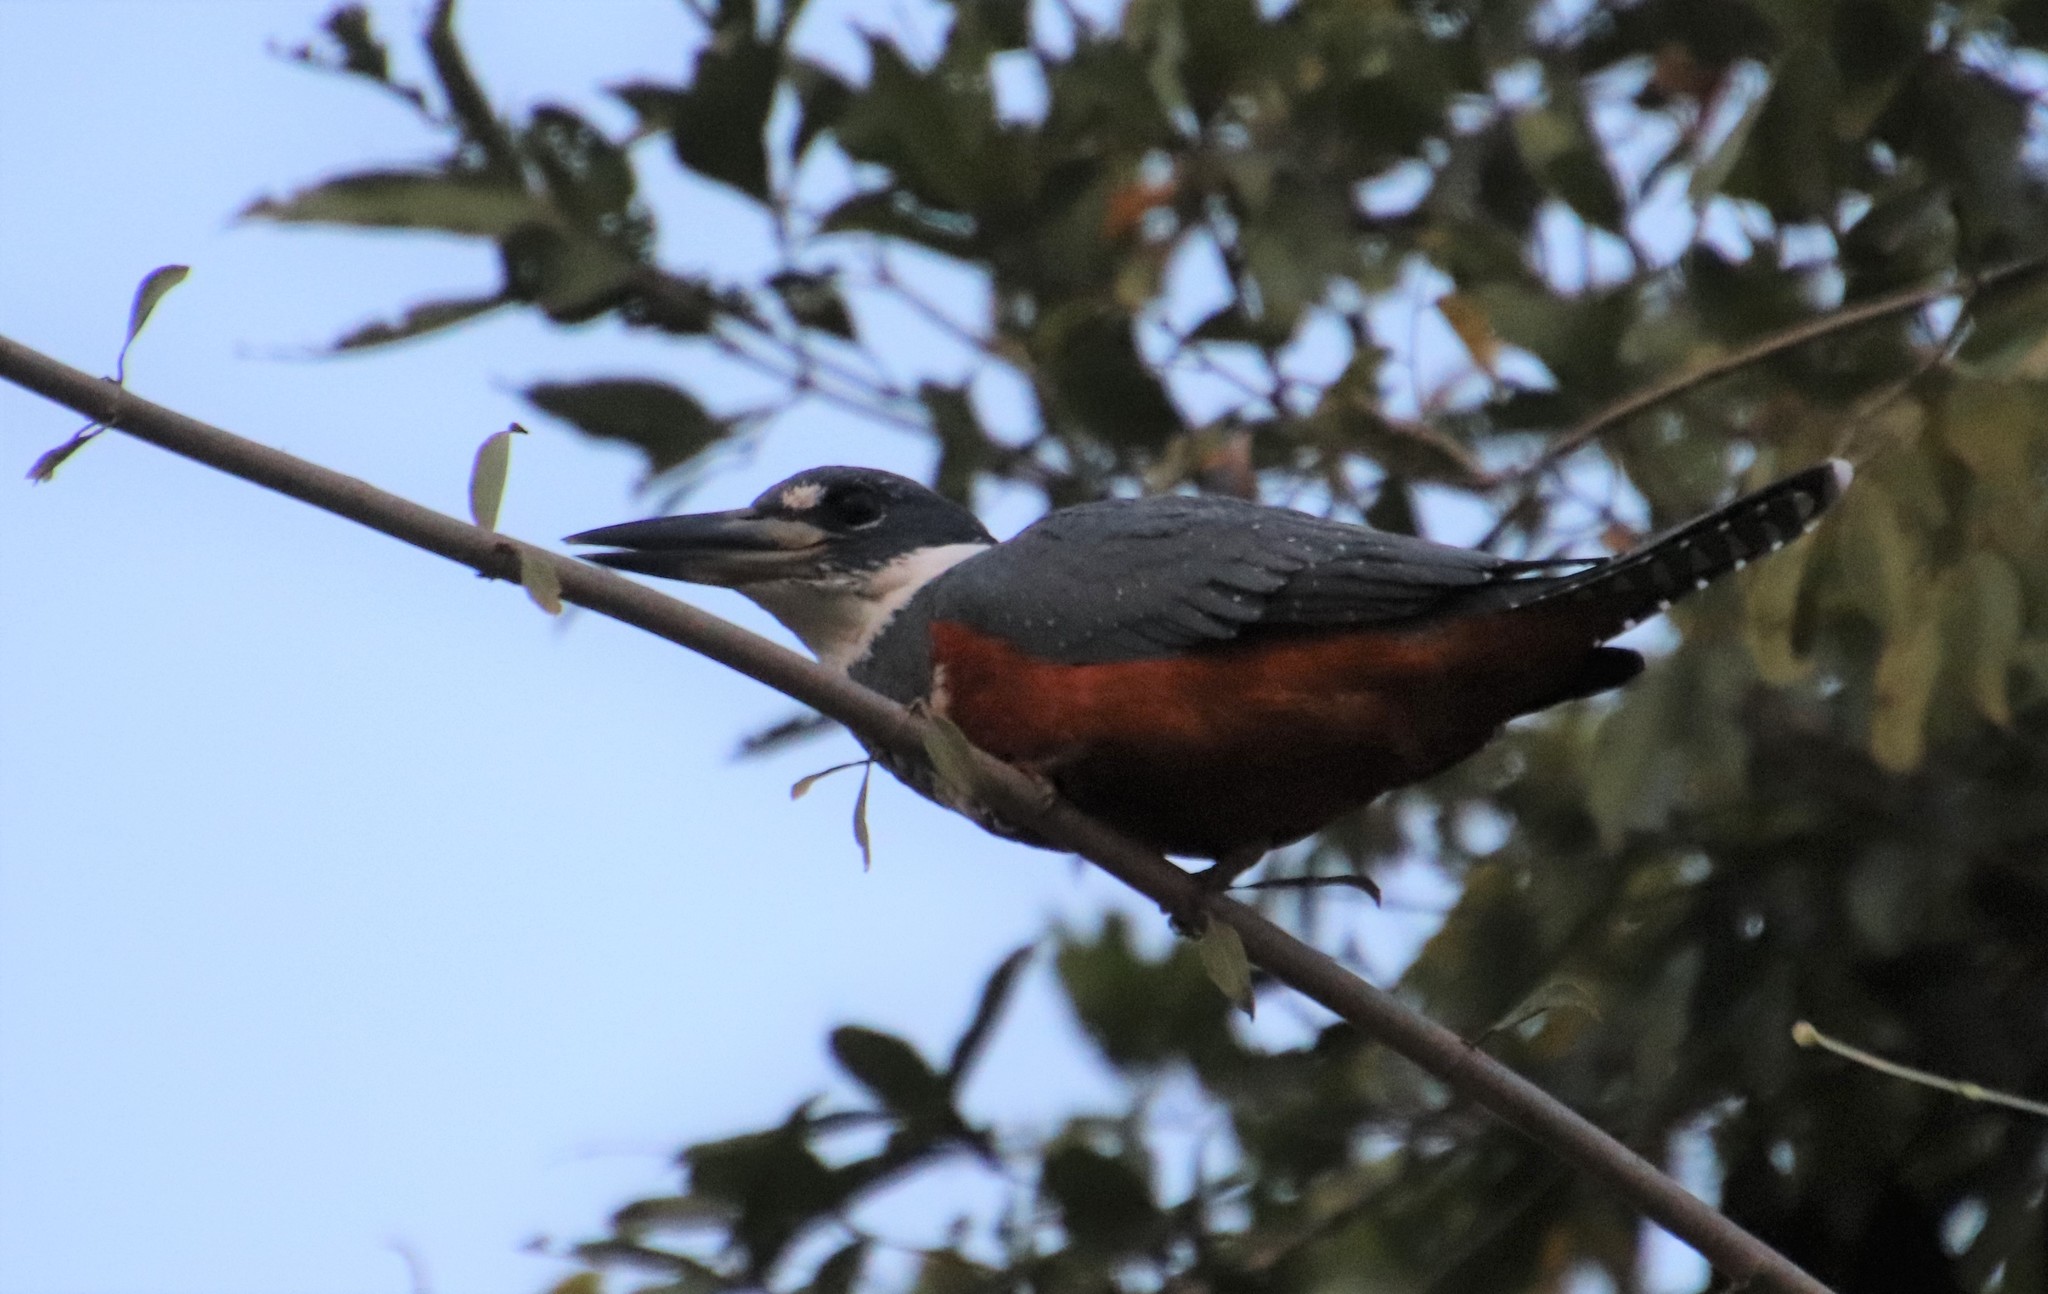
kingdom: Animalia
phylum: Chordata
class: Aves
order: Coraciiformes
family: Alcedinidae
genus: Megaceryle
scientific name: Megaceryle torquata
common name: Ringed kingfisher
